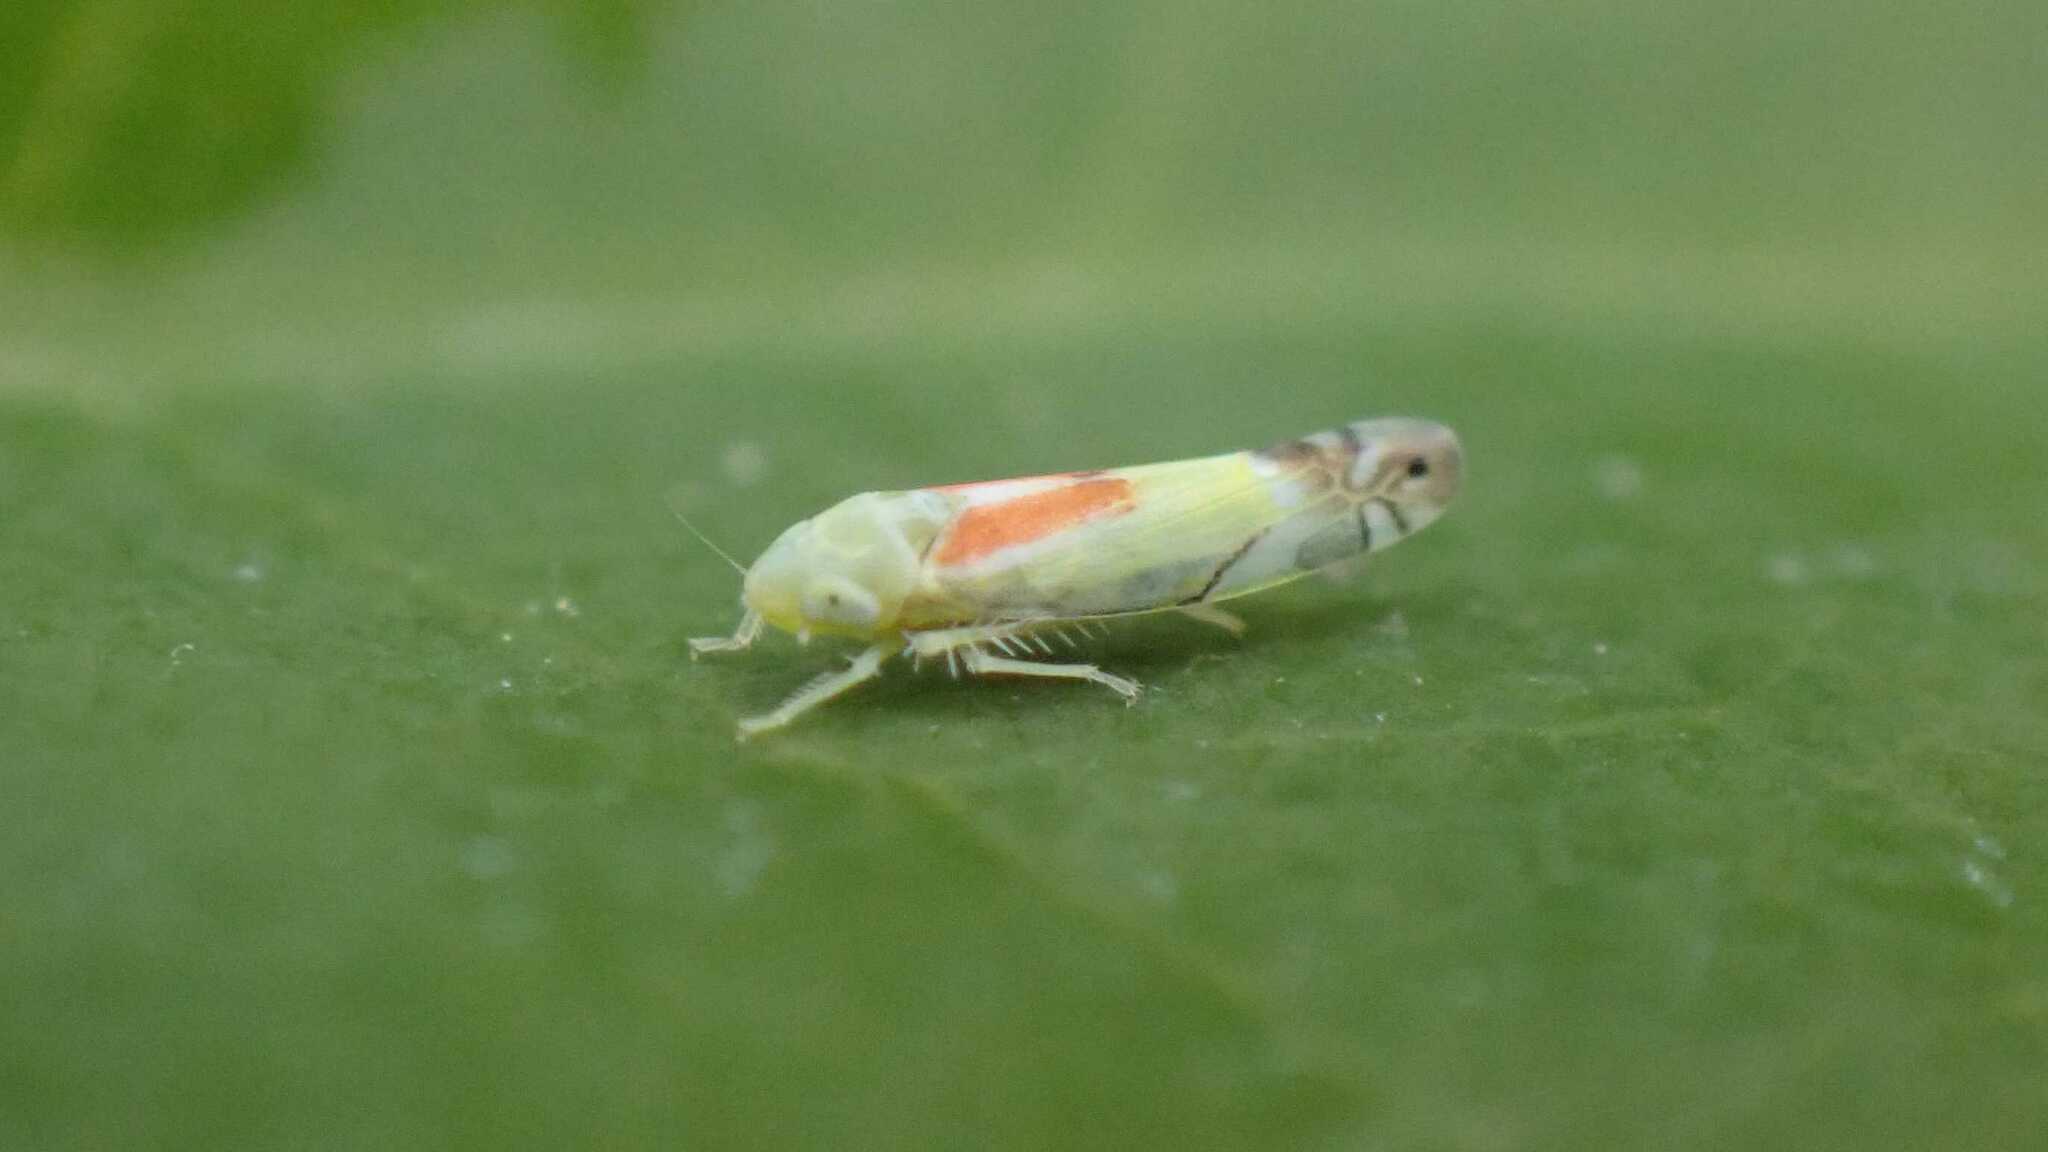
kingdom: Animalia
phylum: Arthropoda
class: Insecta
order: Hemiptera
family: Cicadellidae
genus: Zyginella
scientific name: Zyginella pulchra
